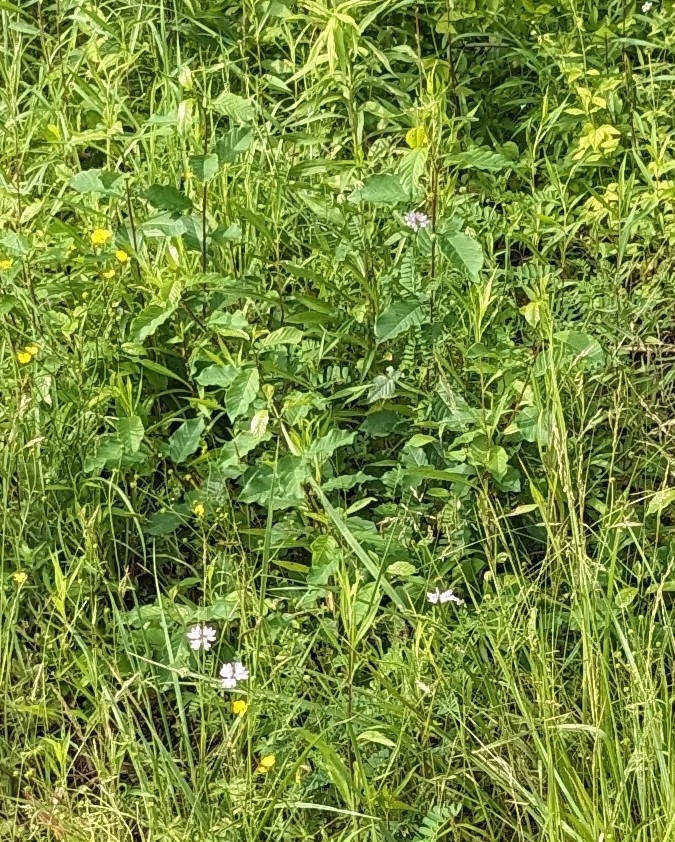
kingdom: Plantae
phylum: Tracheophyta
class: Magnoliopsida
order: Fabales
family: Fabaceae
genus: Coronilla
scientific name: Coronilla varia
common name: Crownvetch
